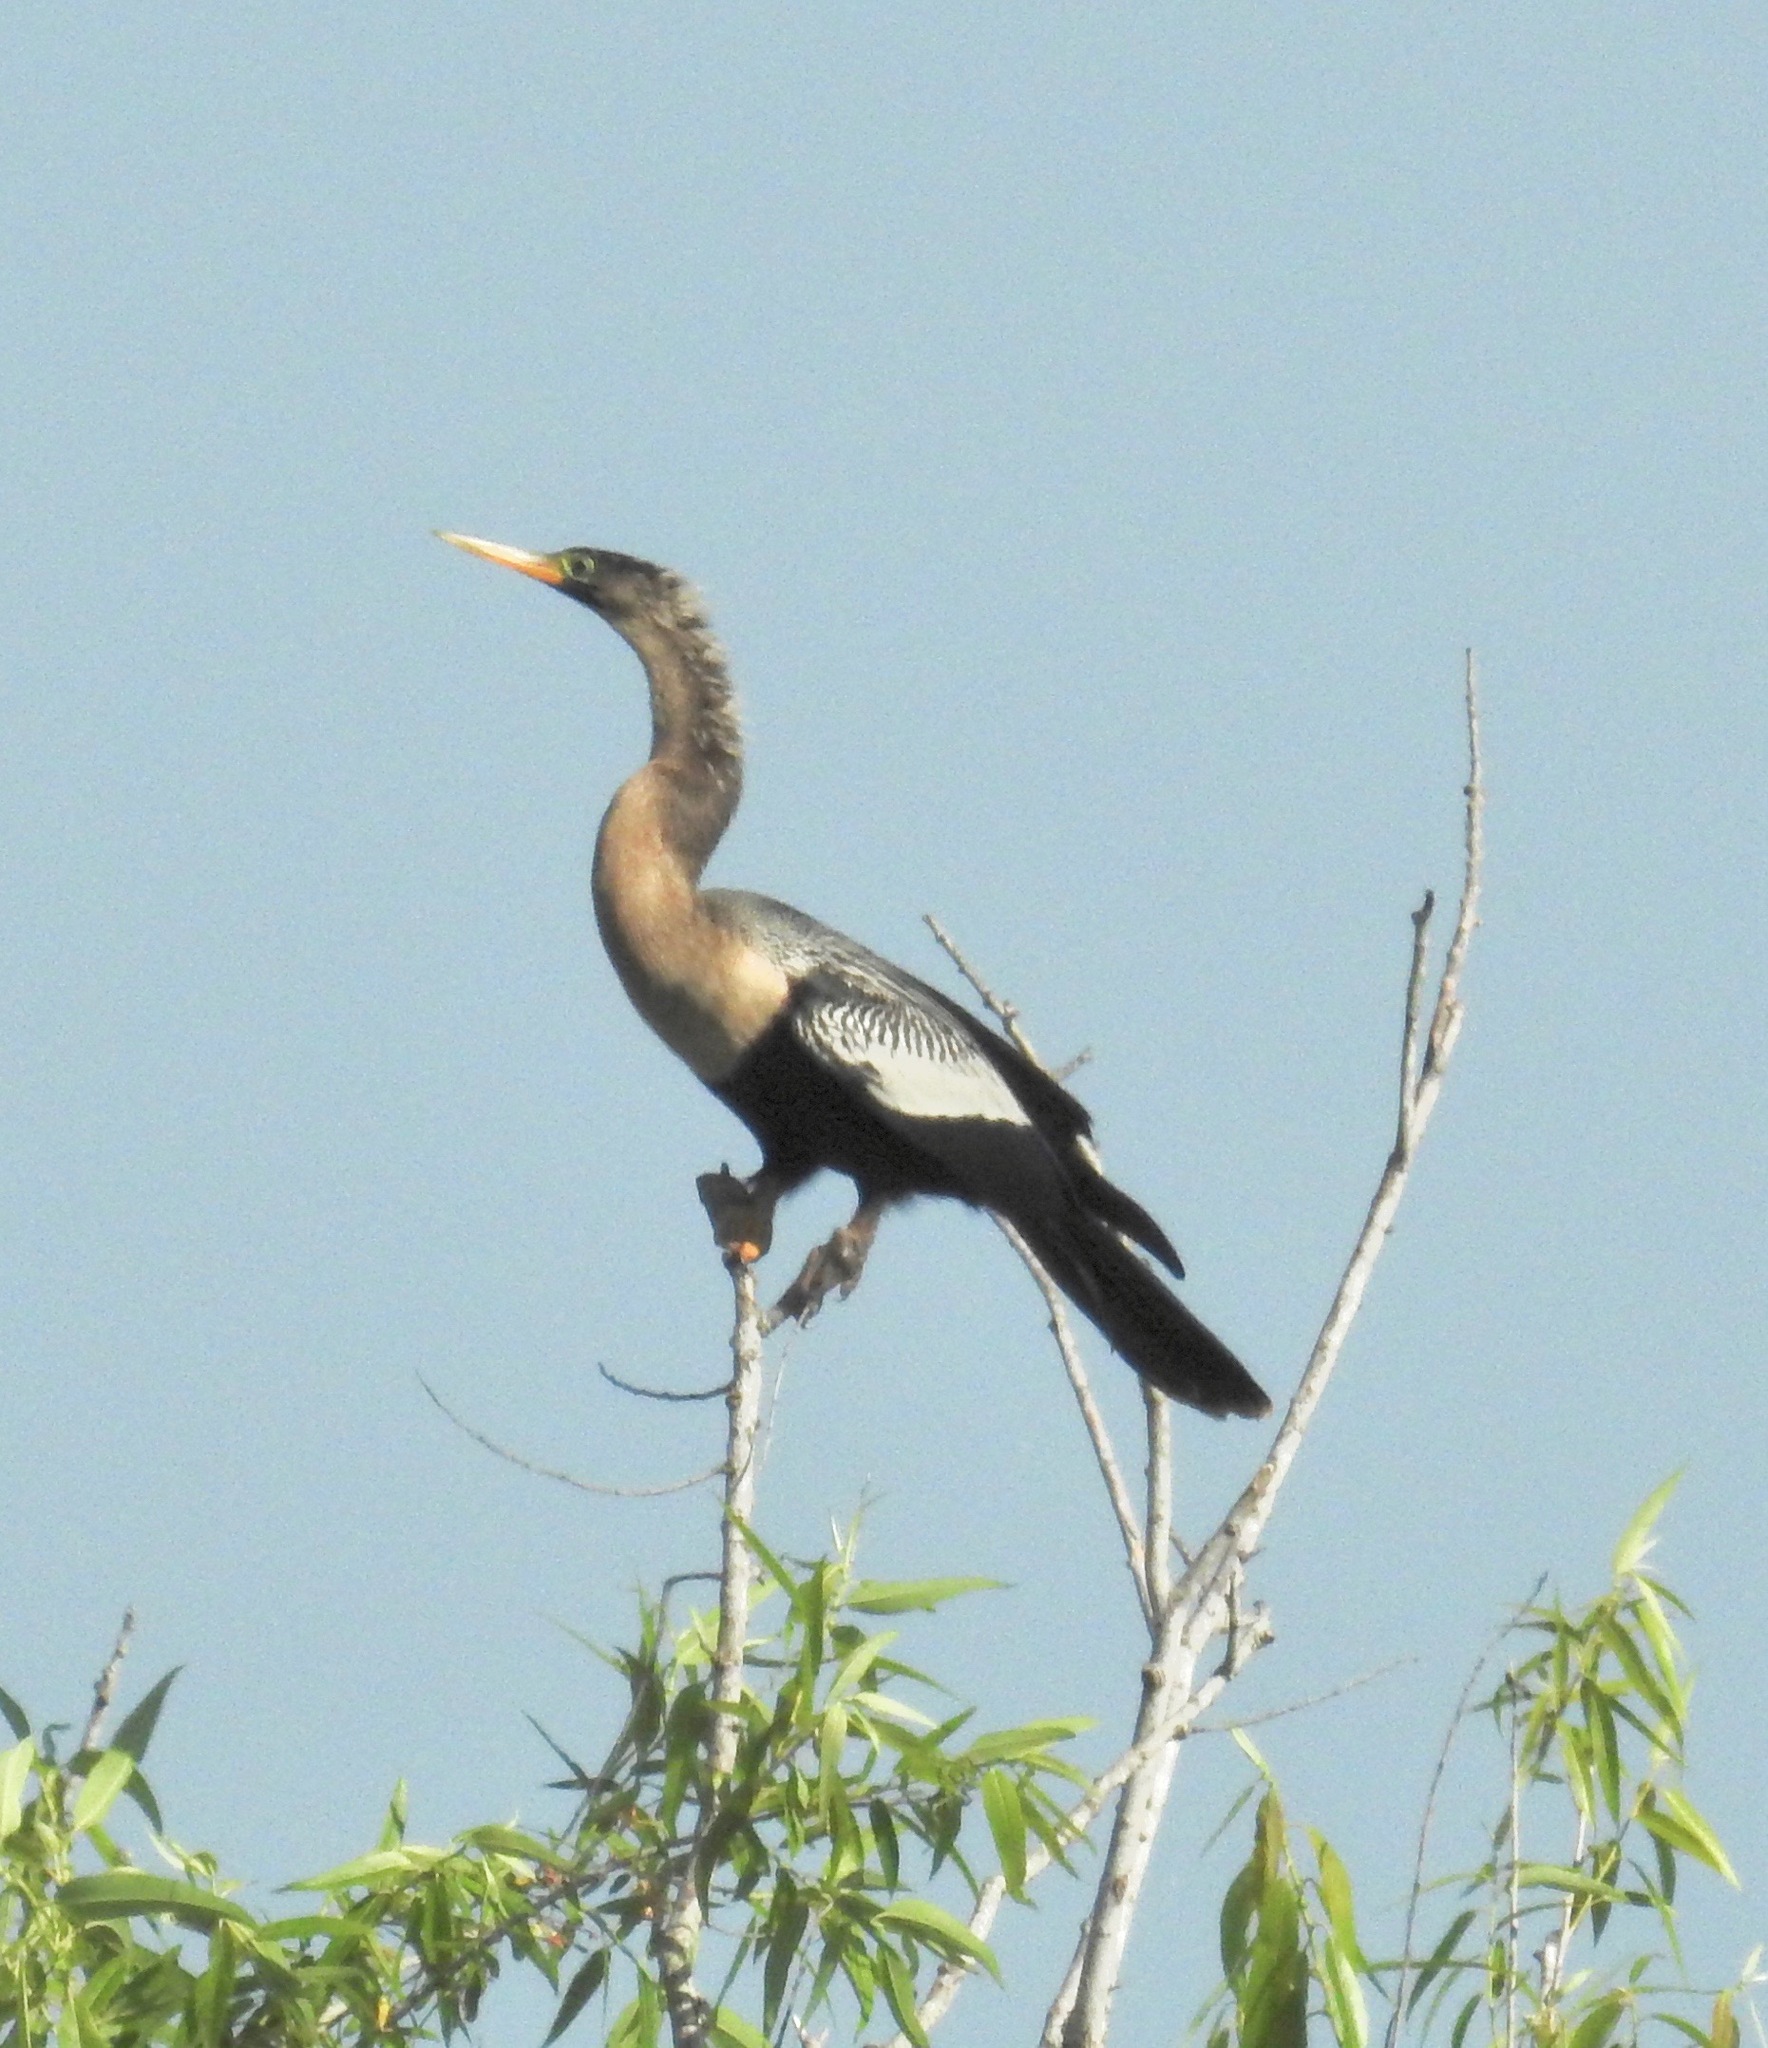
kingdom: Animalia
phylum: Chordata
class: Aves
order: Suliformes
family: Anhingidae
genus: Anhinga
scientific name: Anhinga anhinga
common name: Anhinga
